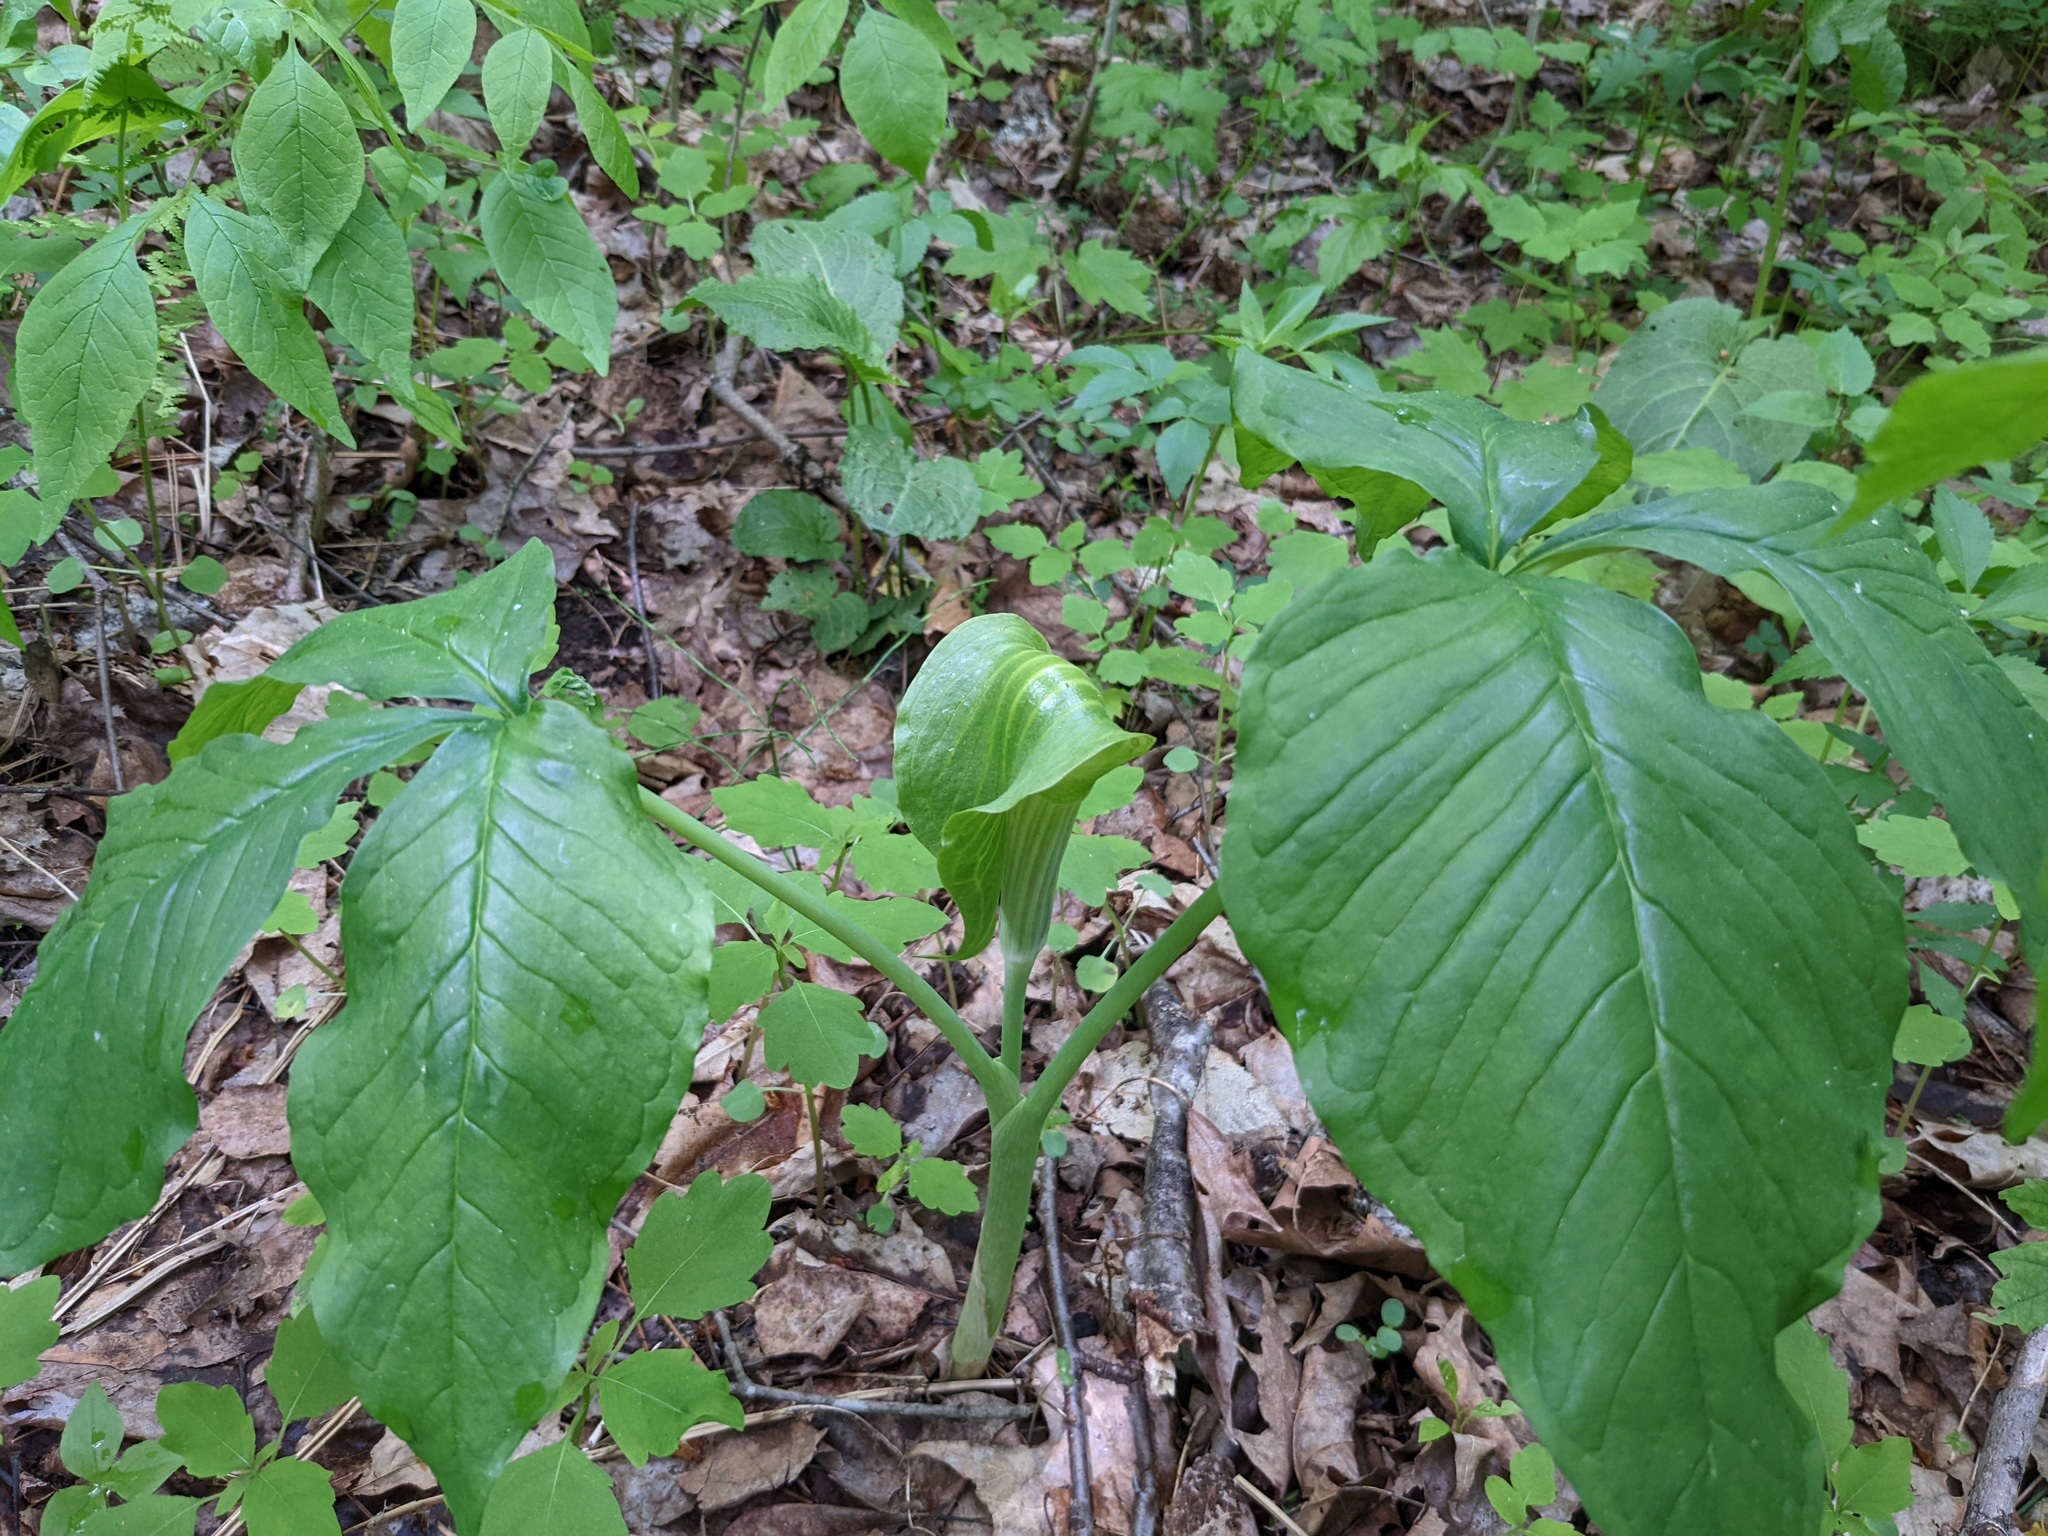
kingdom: Plantae
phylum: Tracheophyta
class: Liliopsida
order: Alismatales
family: Araceae
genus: Arisaema
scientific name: Arisaema triphyllum
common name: Jack-in-the-pulpit
